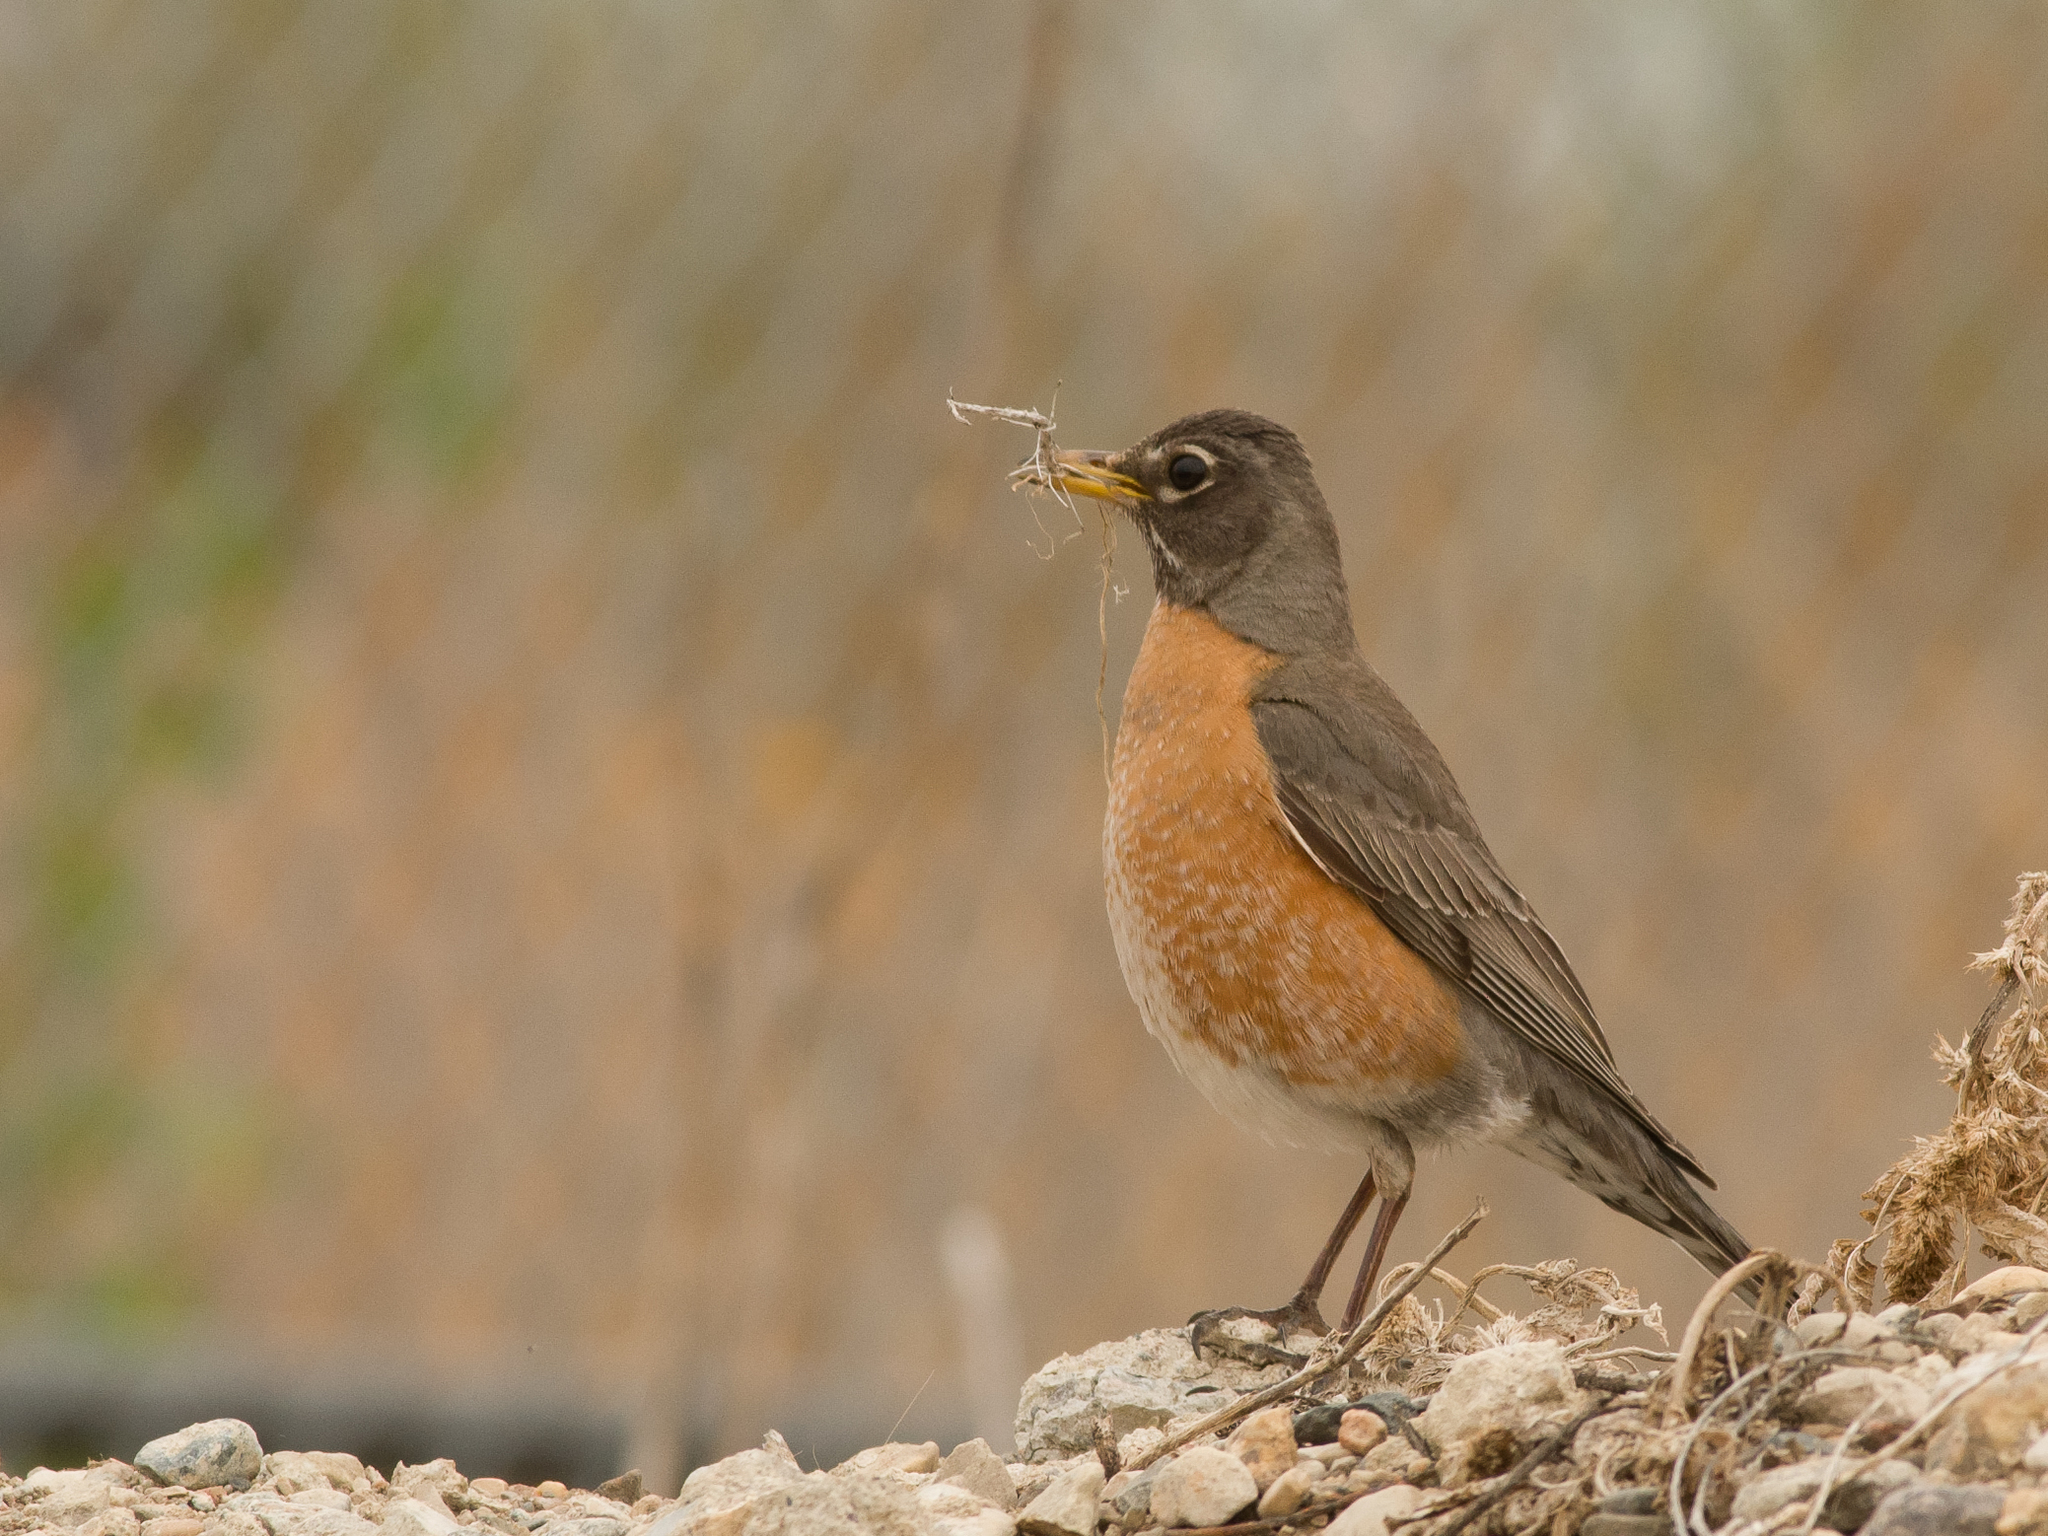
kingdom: Animalia
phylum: Chordata
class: Aves
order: Passeriformes
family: Turdidae
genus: Turdus
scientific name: Turdus migratorius
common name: American robin
